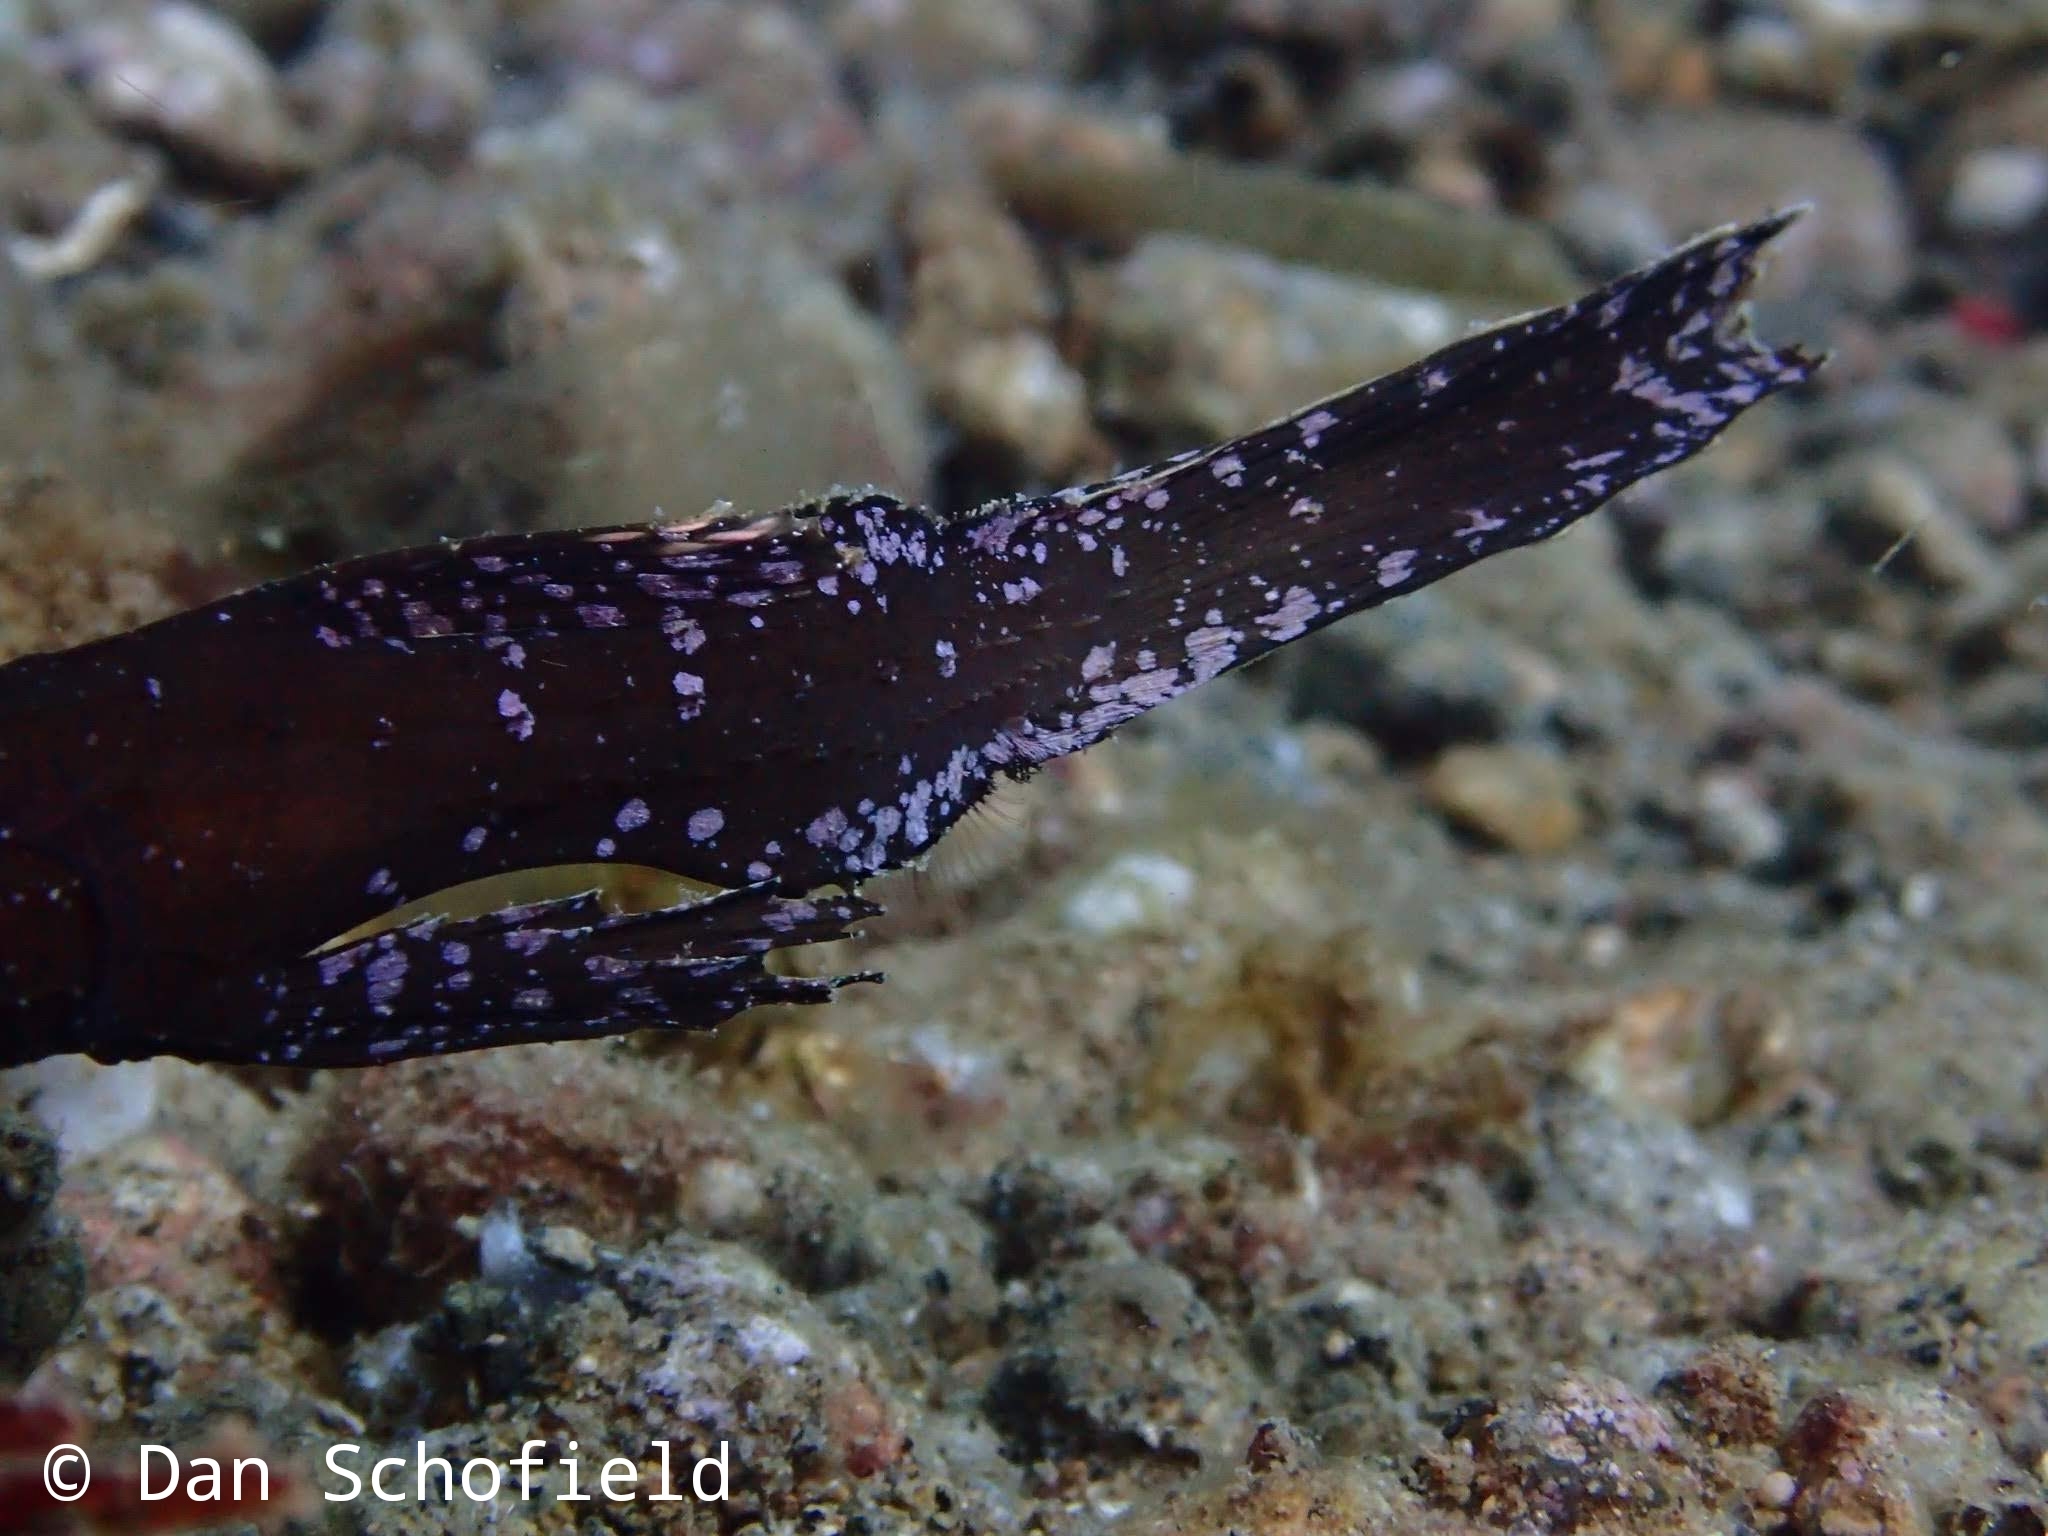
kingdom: Animalia
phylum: Chordata
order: Syngnathiformes
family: Solenostomidae
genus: Solenostomus
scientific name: Solenostomus cyanopterus
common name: Blue-finned ghost pipefish
